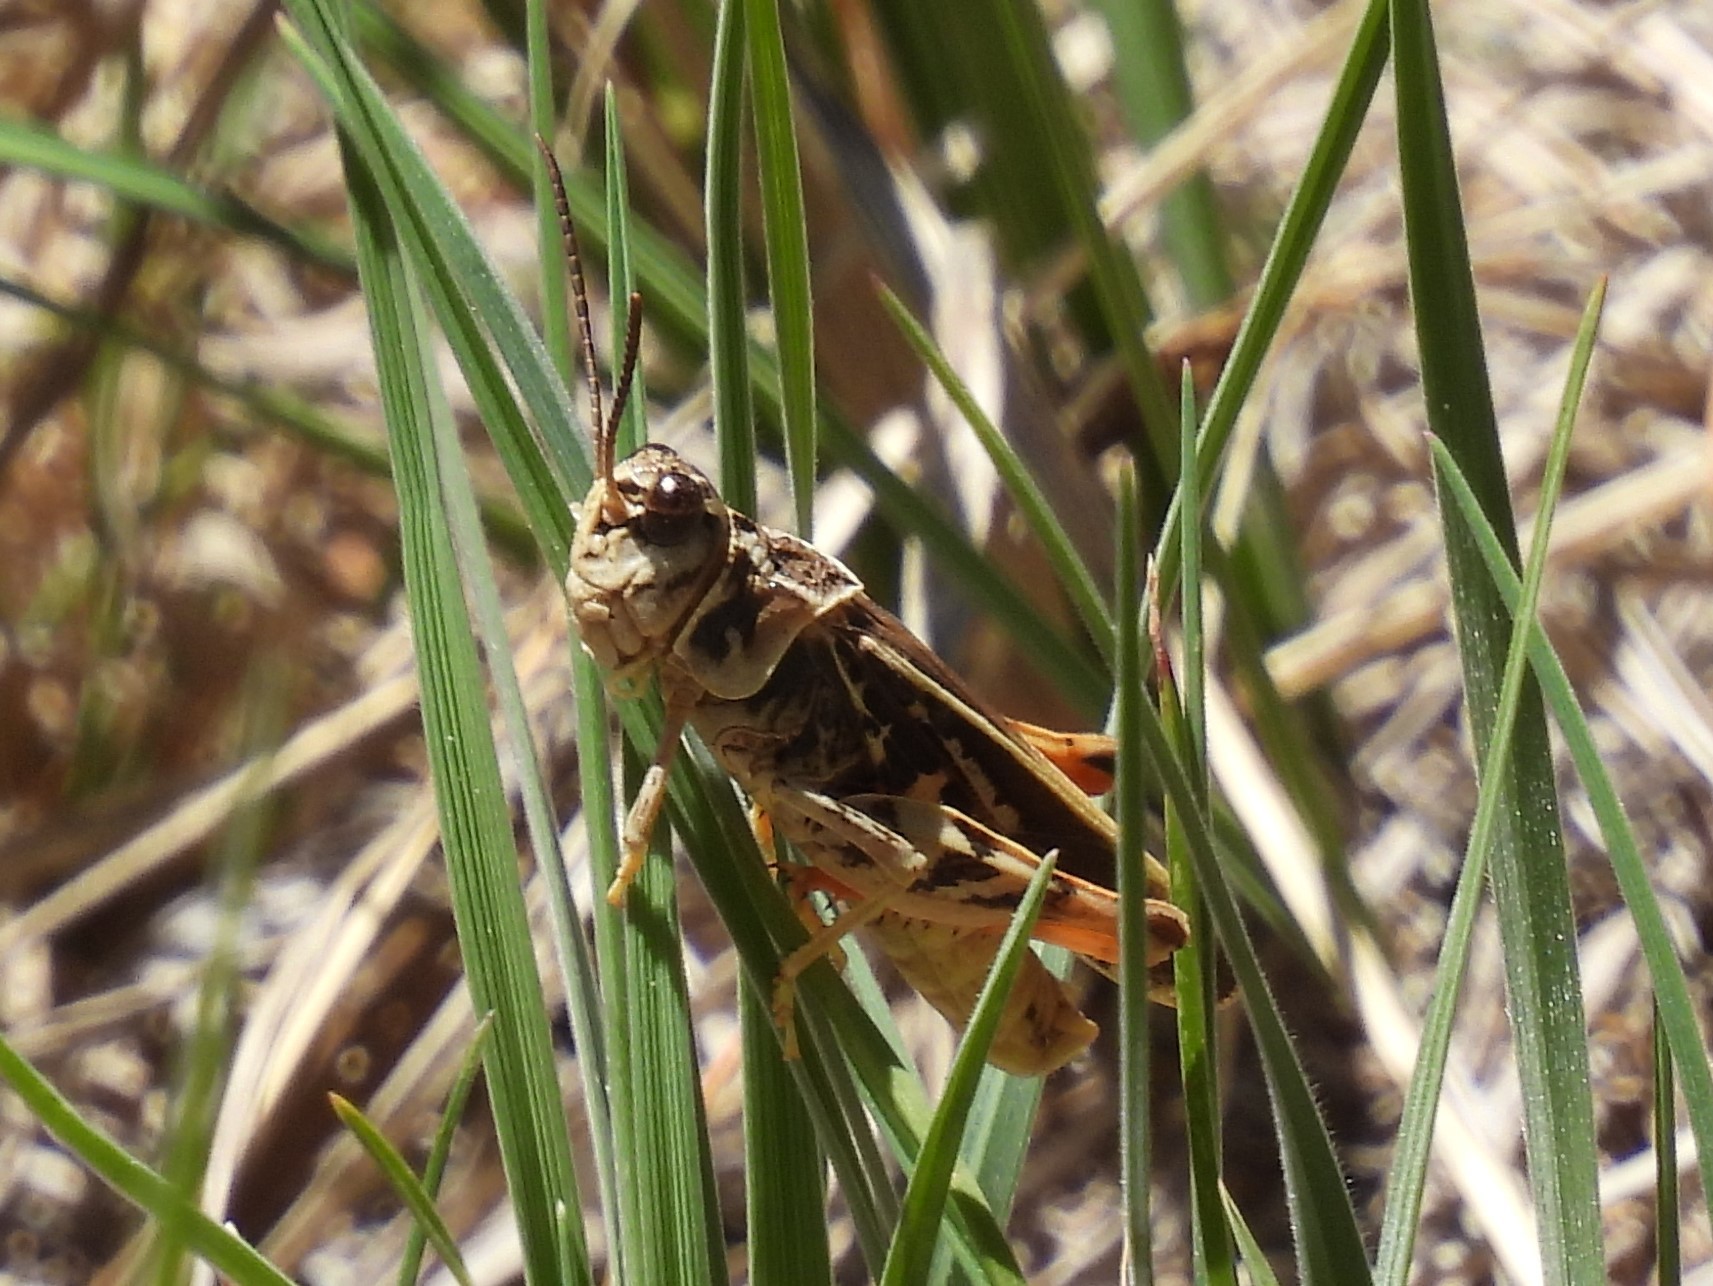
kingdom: Animalia
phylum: Arthropoda
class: Insecta
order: Orthoptera
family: Acrididae
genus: Xanthippus
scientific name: Xanthippus corallipes
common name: Redshanked grasshopper
